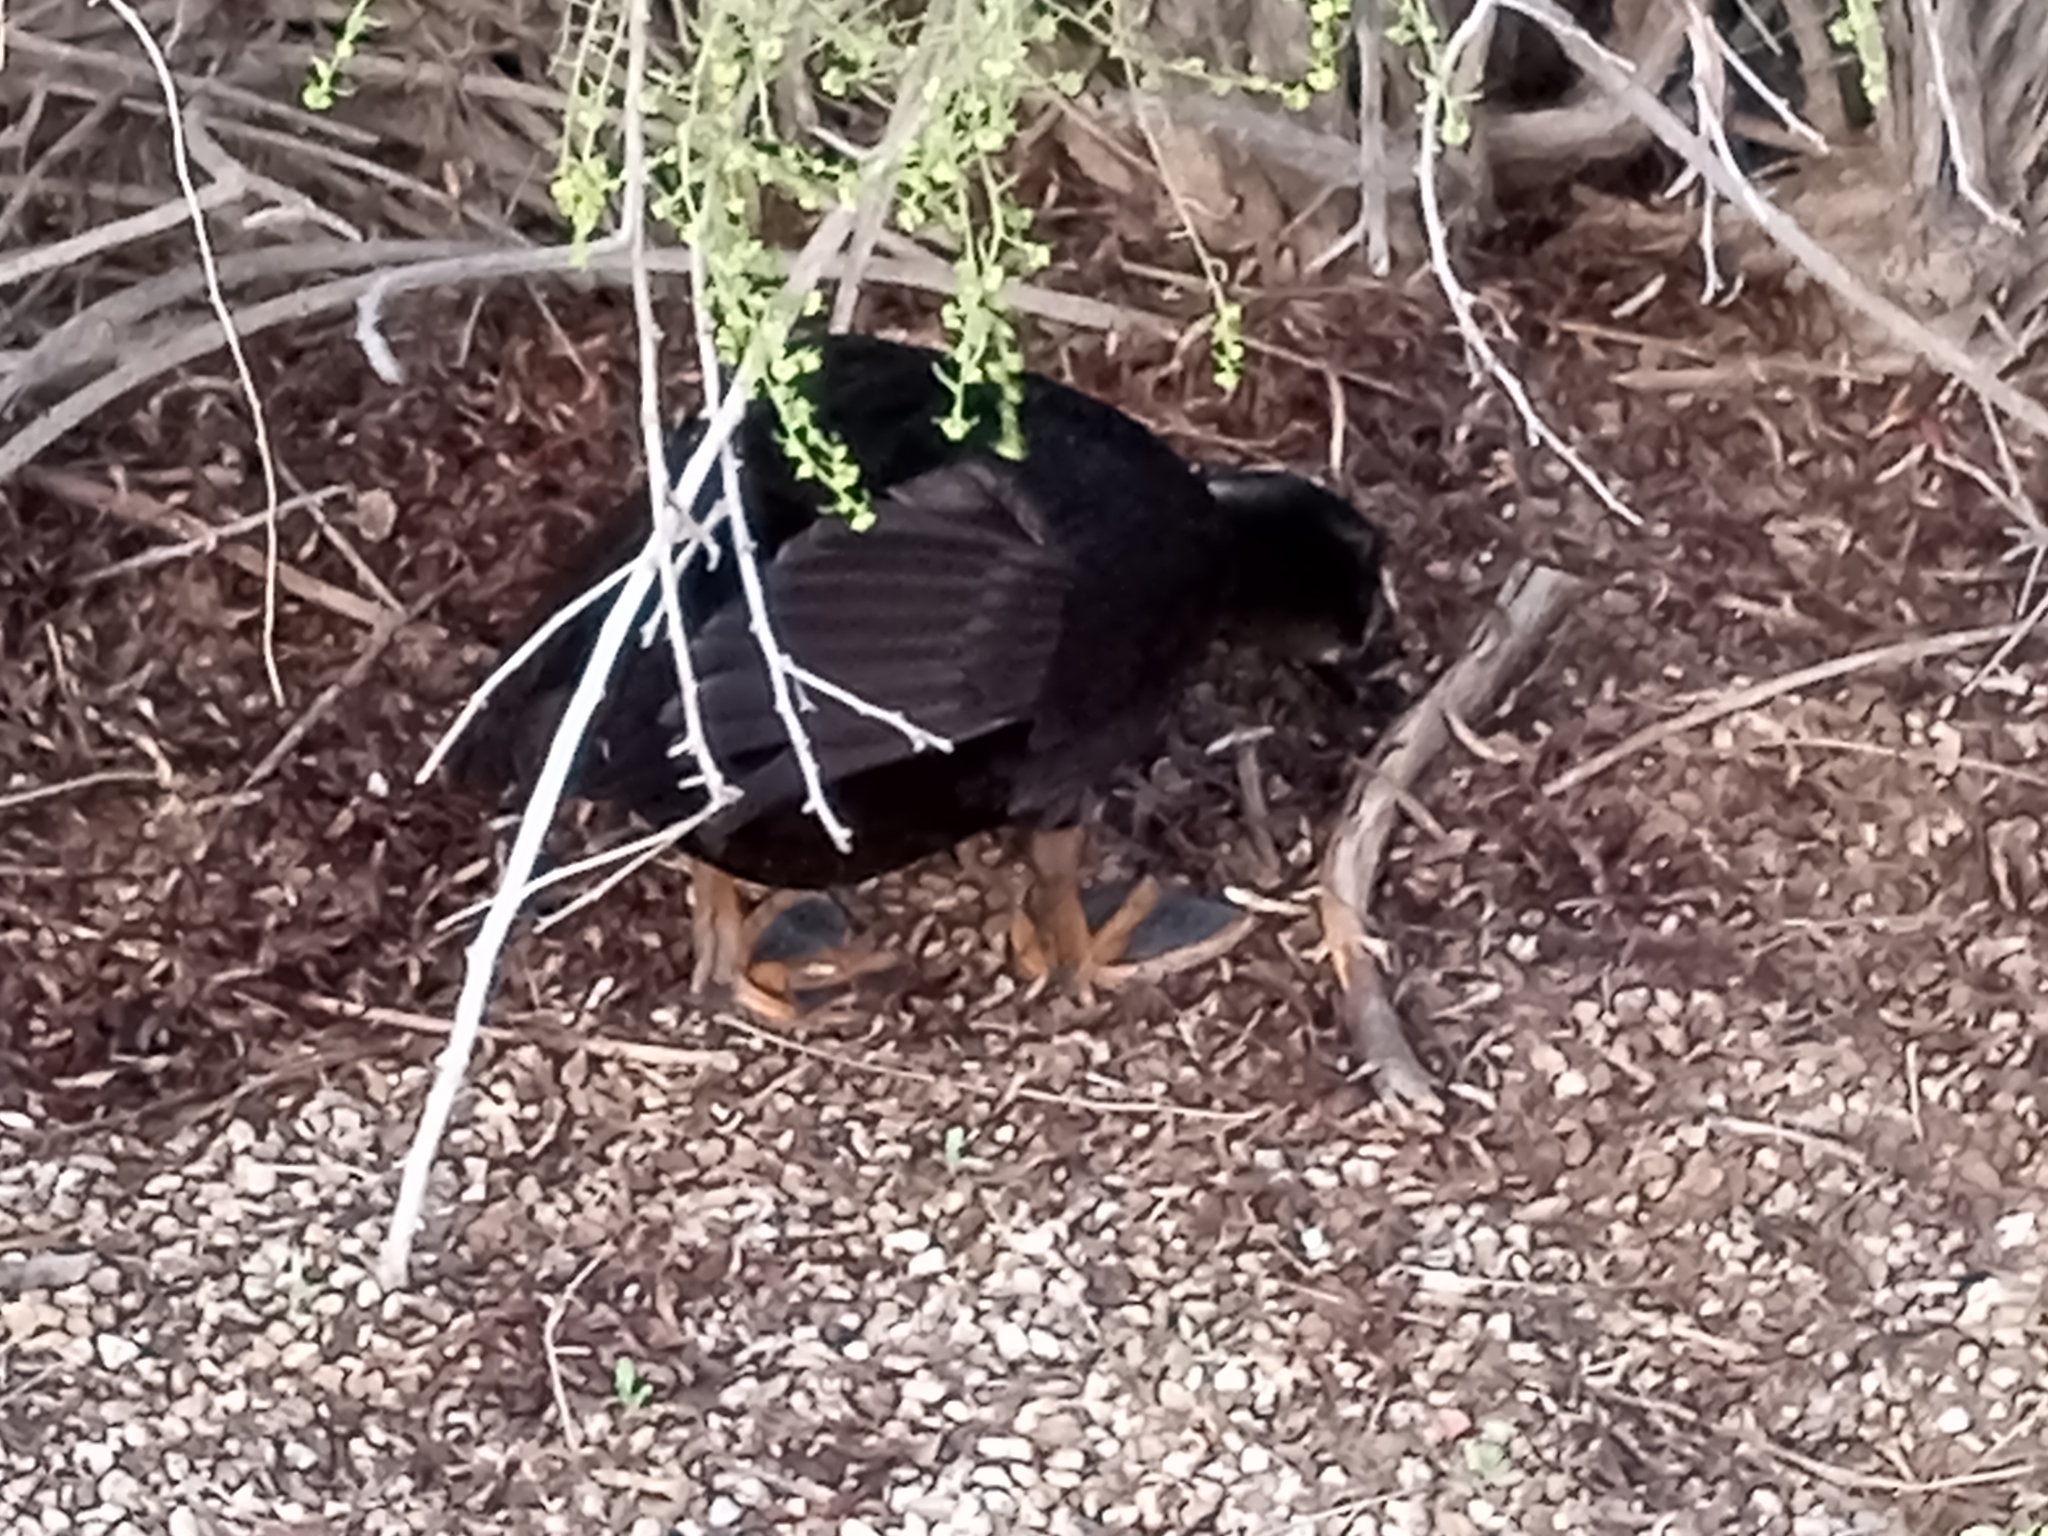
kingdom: Animalia
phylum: Chordata
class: Aves
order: Anseriformes
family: Anatidae
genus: Anas
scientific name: Anas platyrhynchos
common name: Mallard
